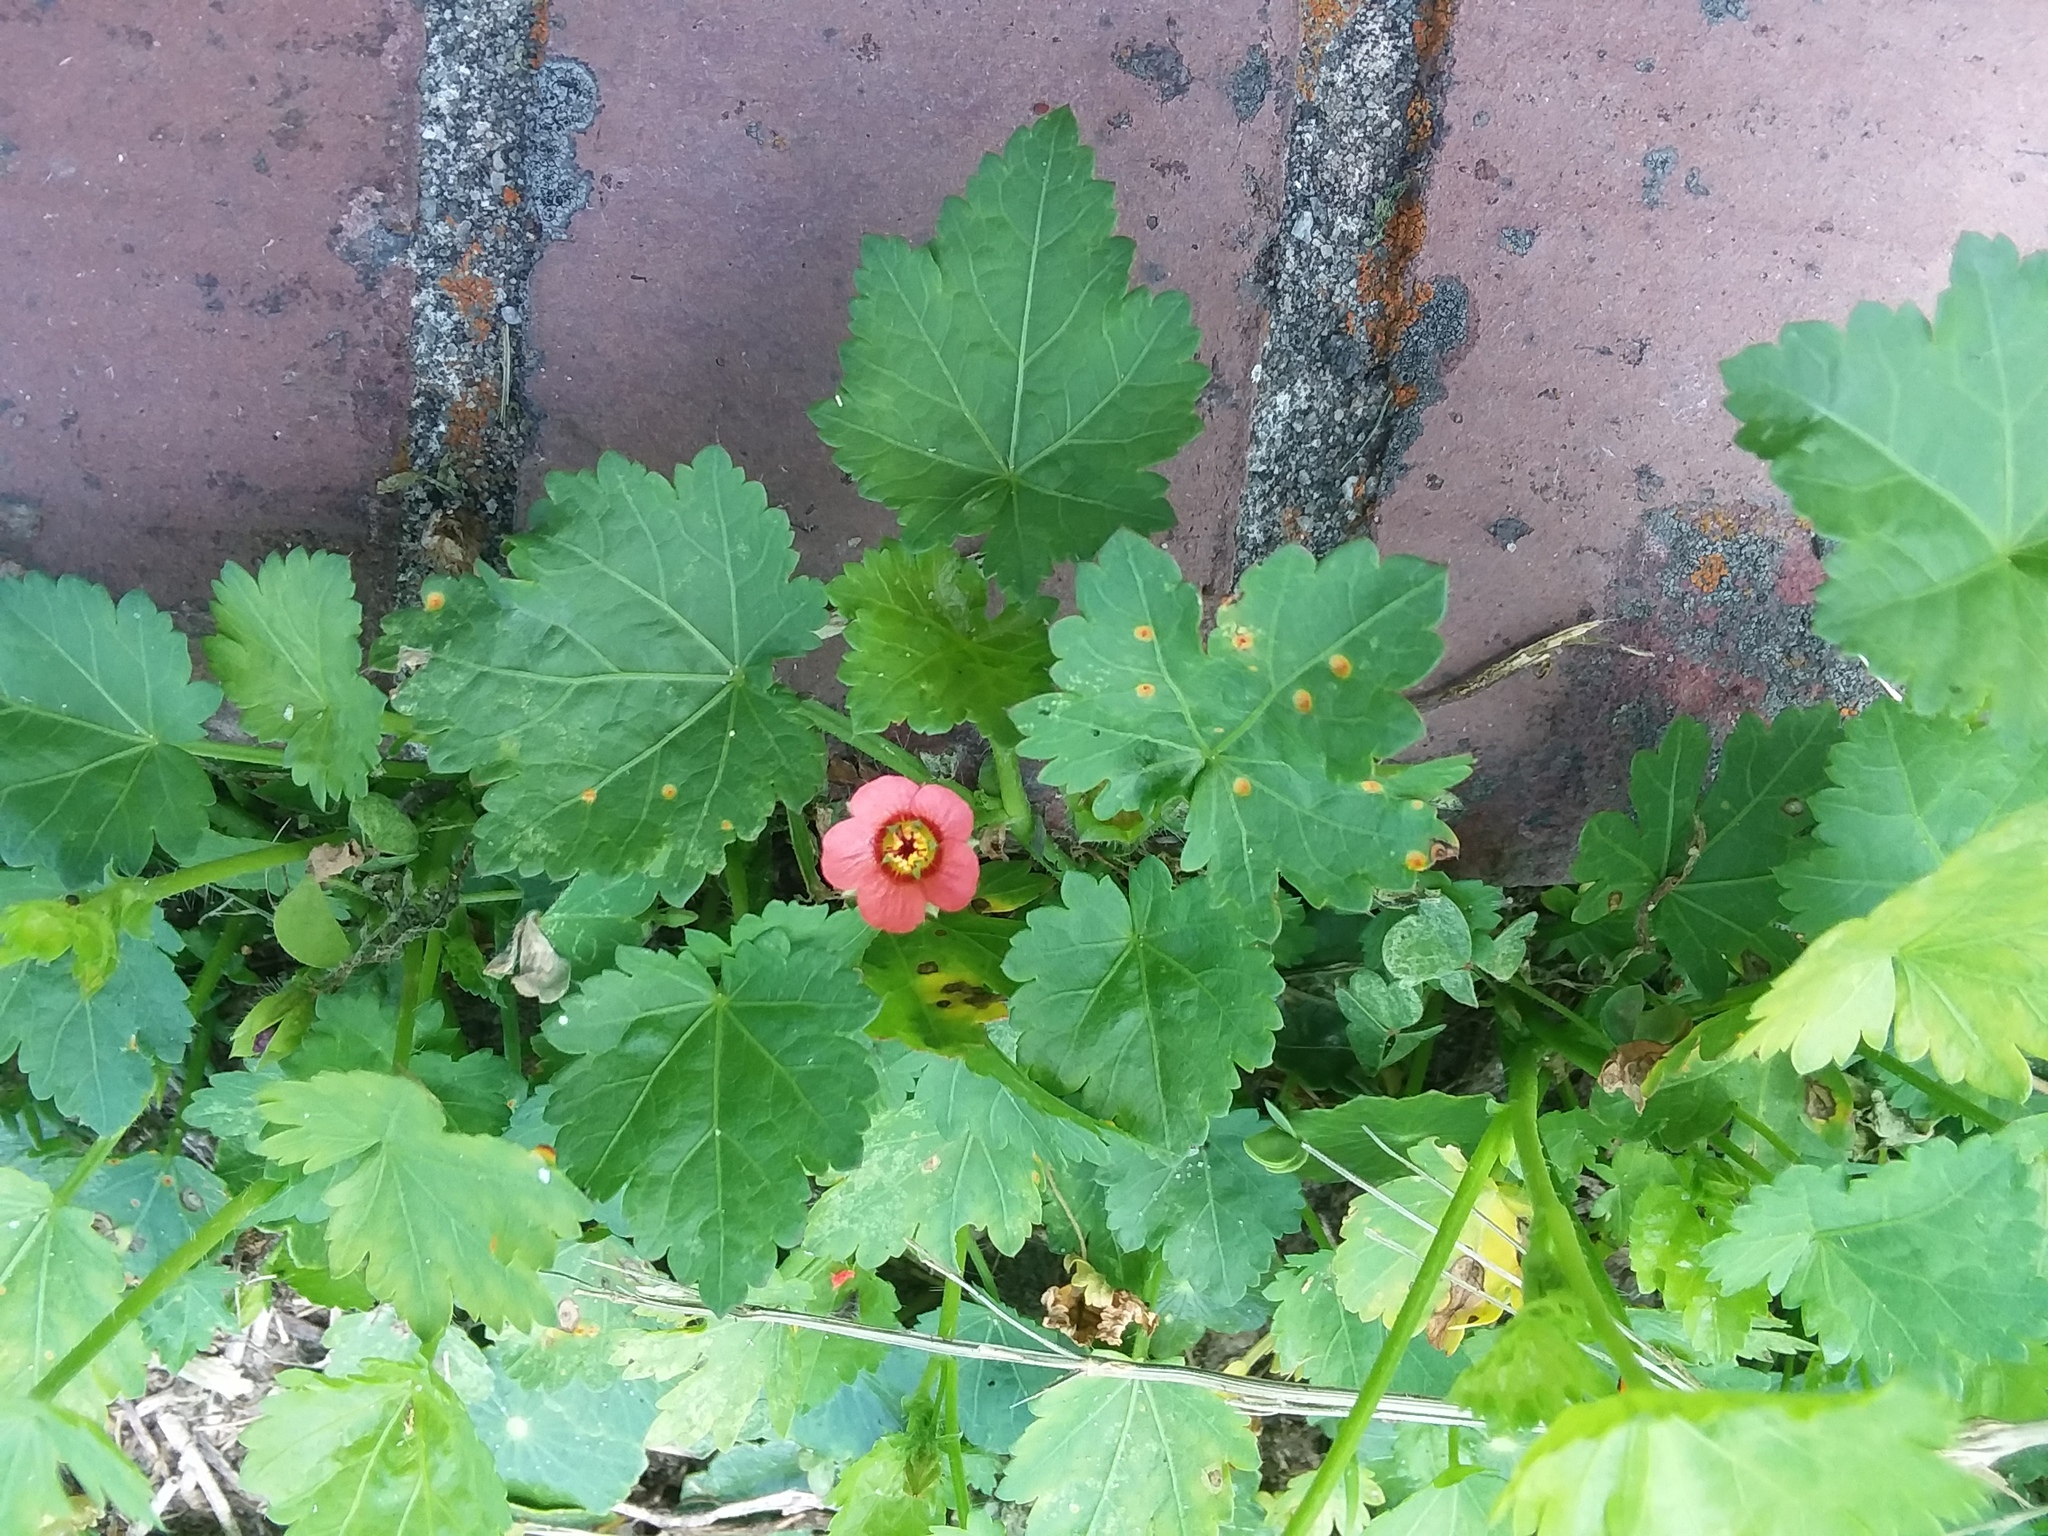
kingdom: Plantae
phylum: Tracheophyta
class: Magnoliopsida
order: Malvales
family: Malvaceae
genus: Modiola
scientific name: Modiola caroliniana
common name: Carolina bristlemallow
